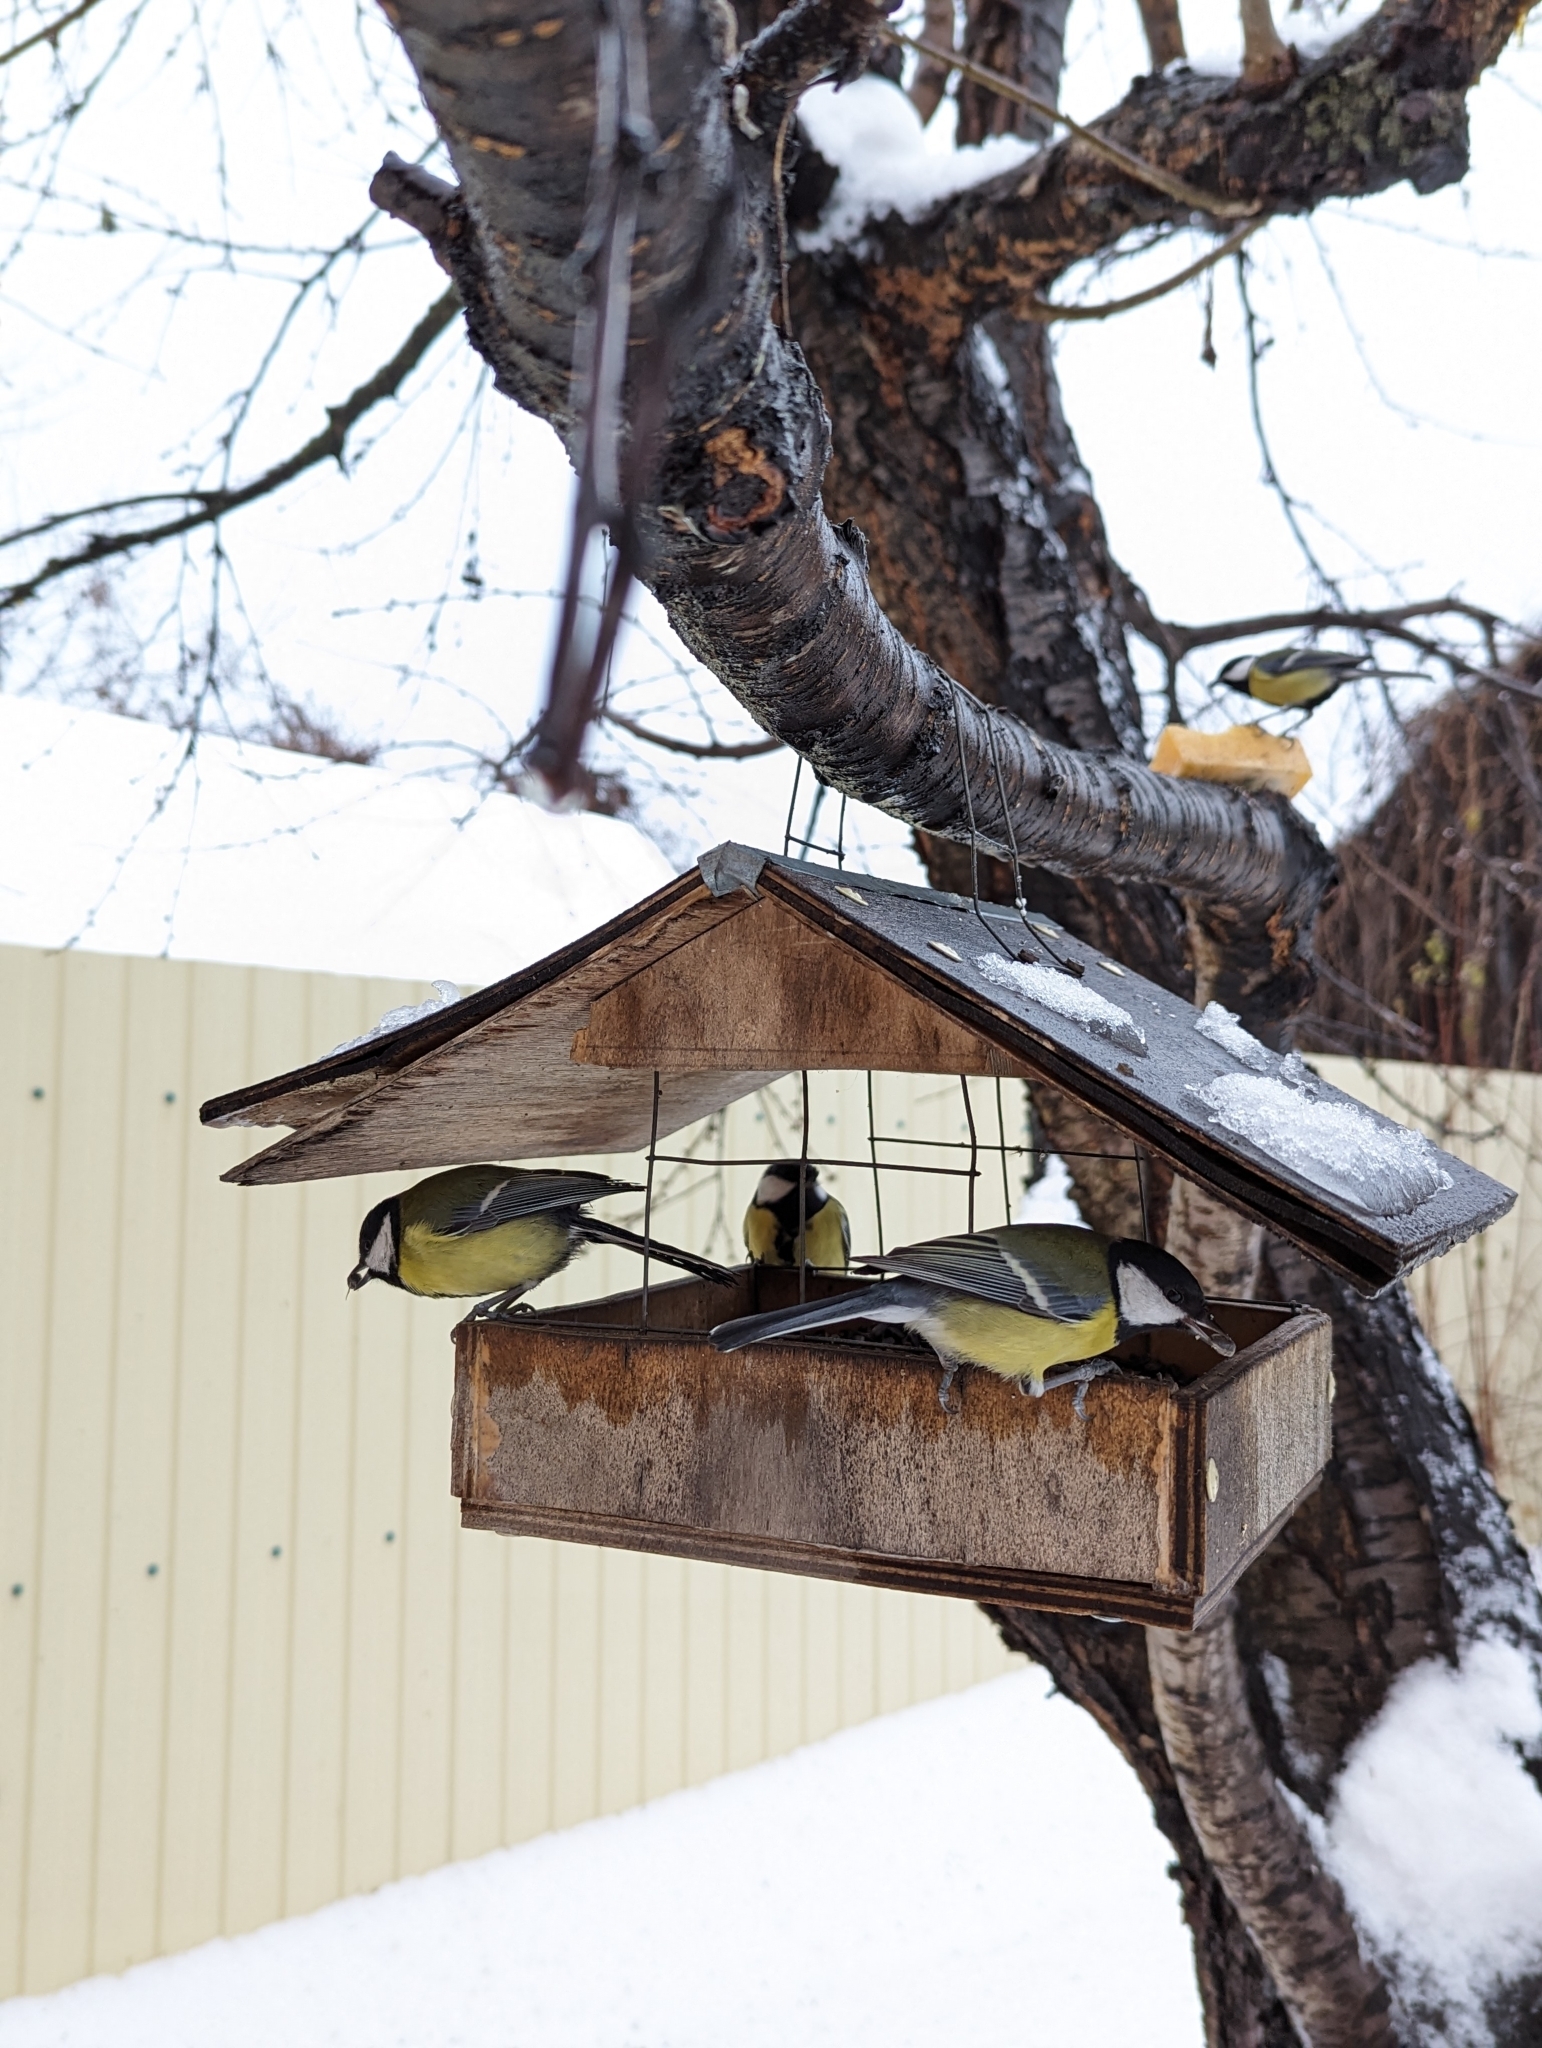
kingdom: Animalia
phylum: Chordata
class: Aves
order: Passeriformes
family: Paridae
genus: Parus
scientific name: Parus major
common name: Great tit
